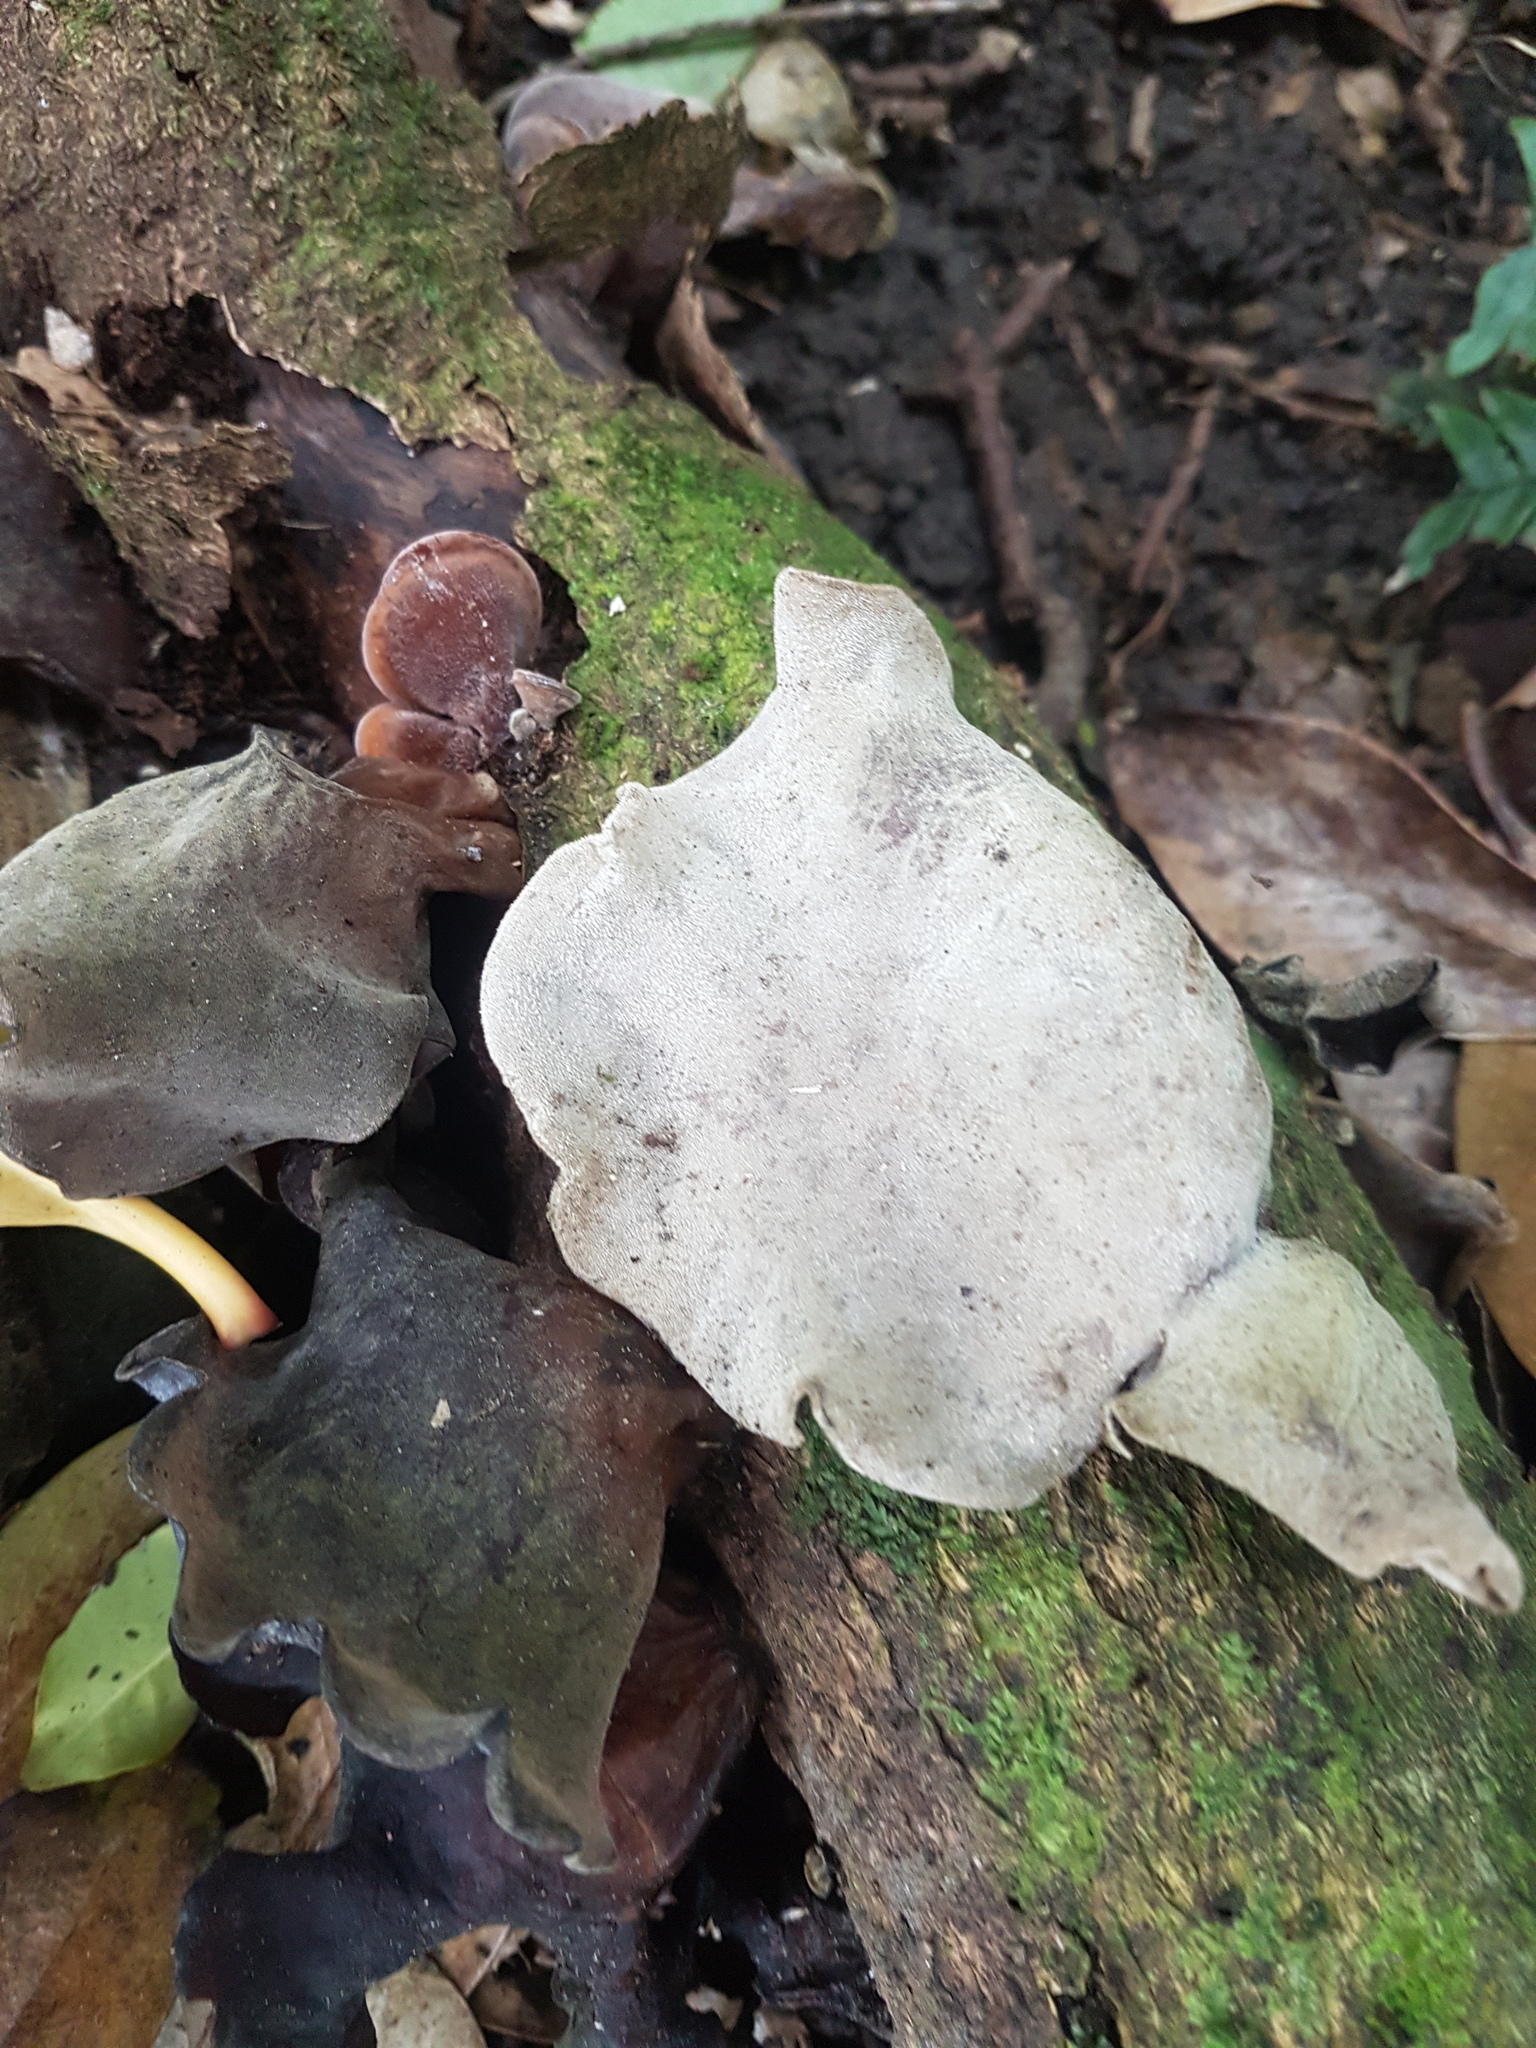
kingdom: Fungi
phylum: Basidiomycota
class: Agaricomycetes
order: Auriculariales
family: Auriculariaceae
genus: Auricularia
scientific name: Auricularia cornea
